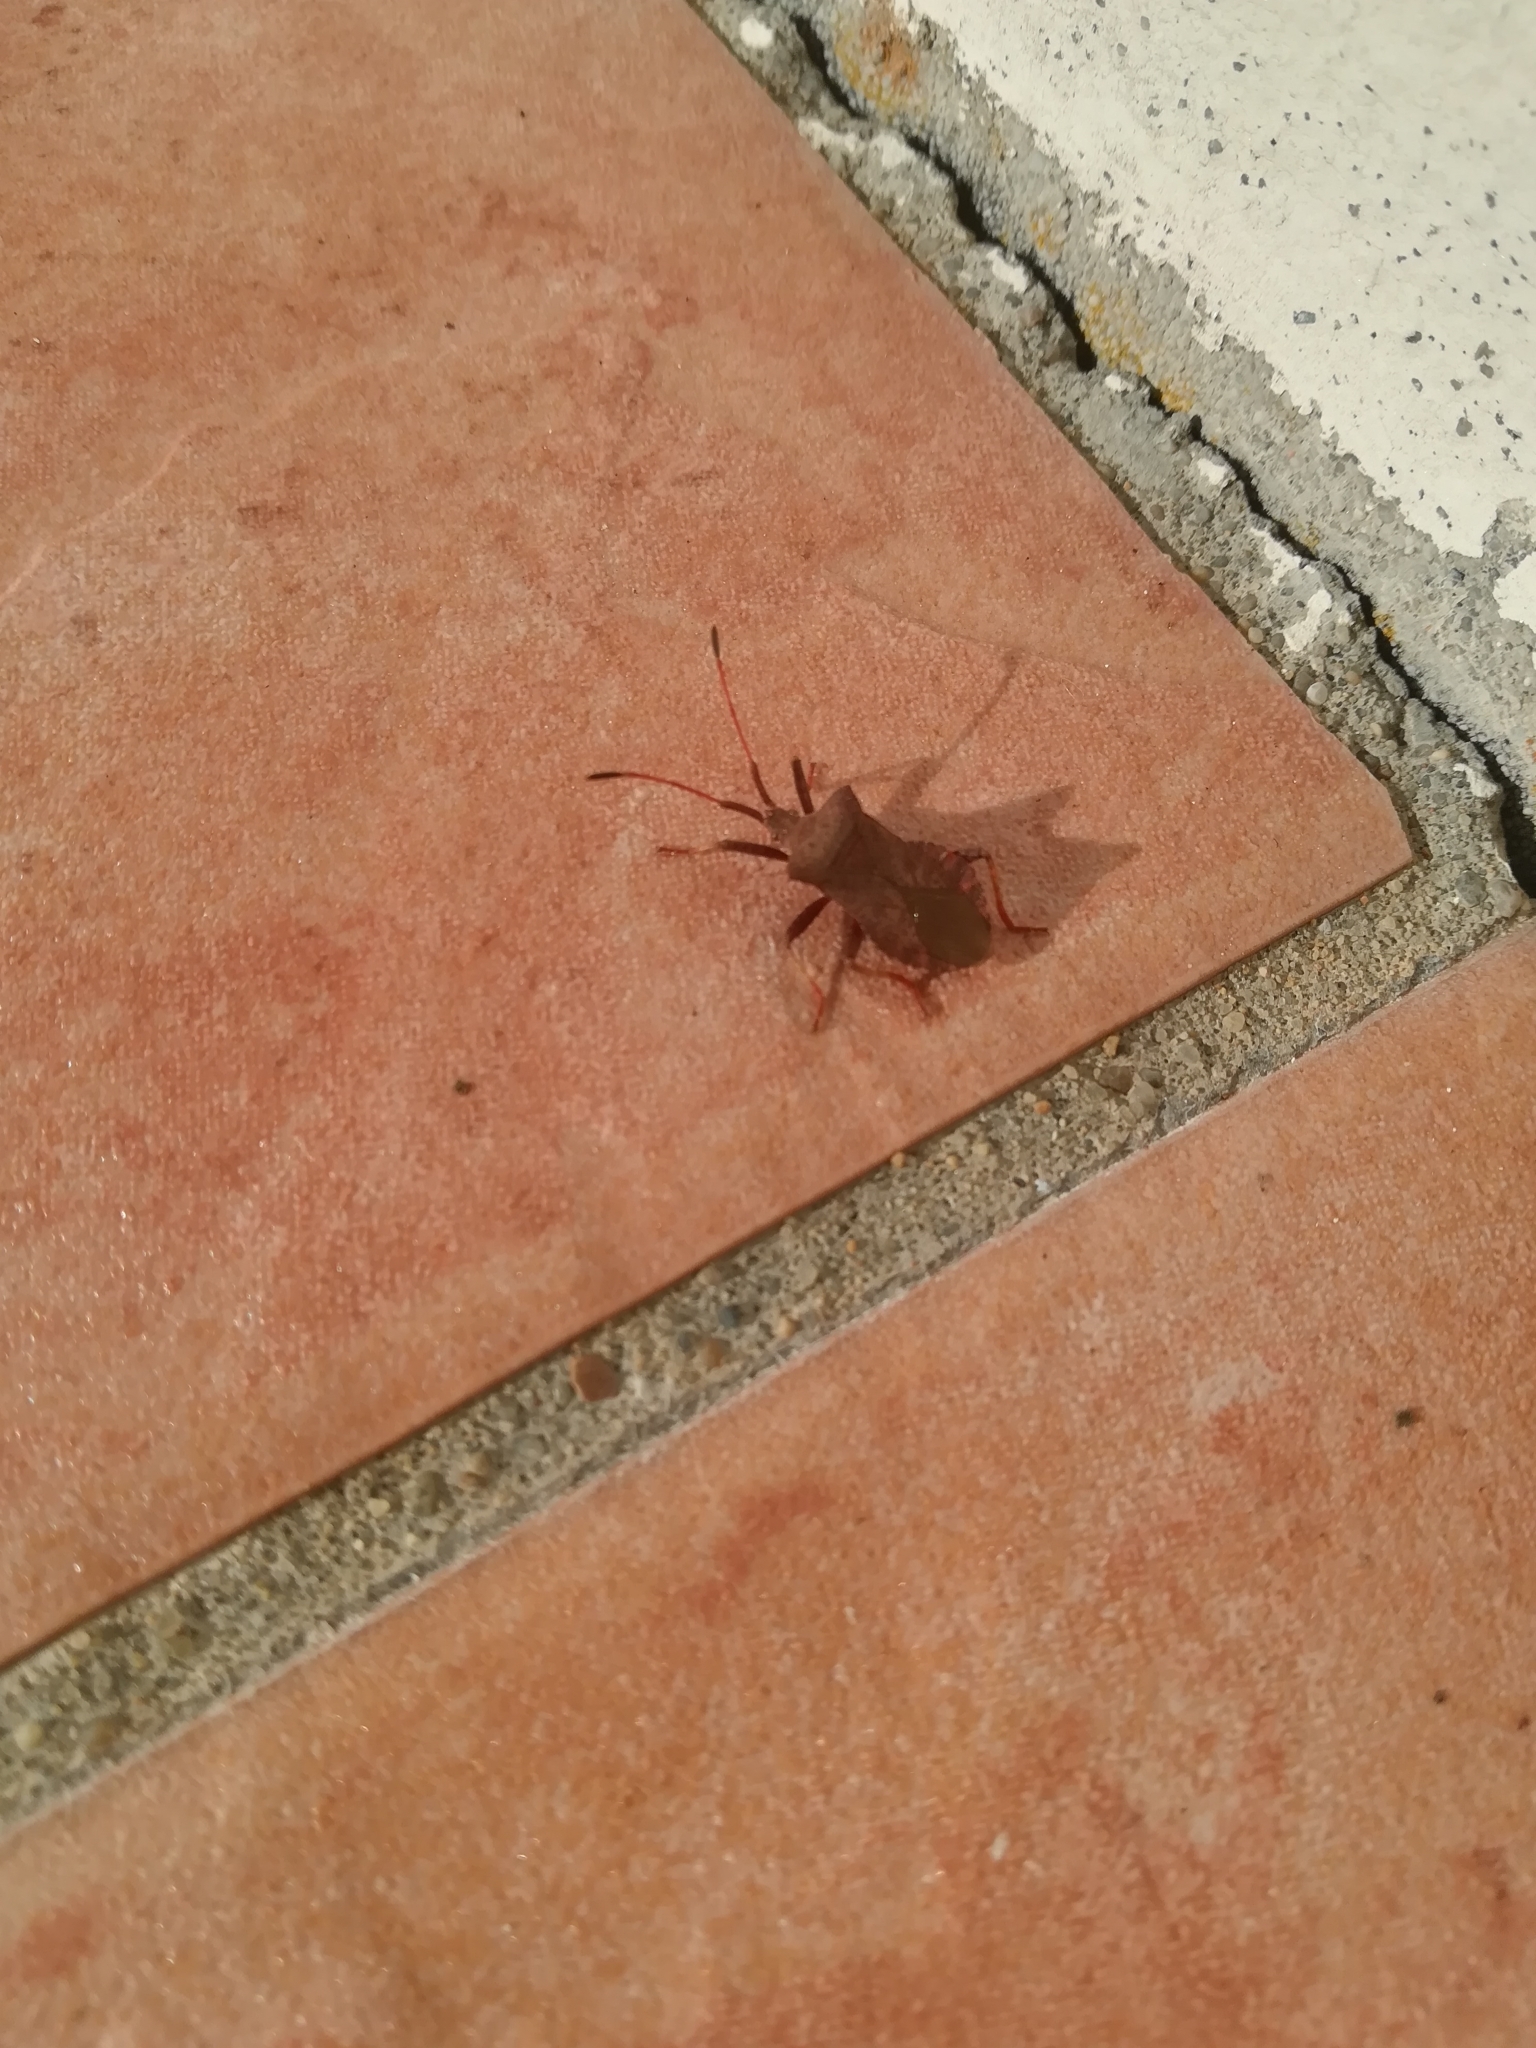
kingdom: Animalia
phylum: Arthropoda
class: Insecta
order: Hemiptera
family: Coreidae
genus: Coreus
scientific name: Coreus marginatus
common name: Dock bug
